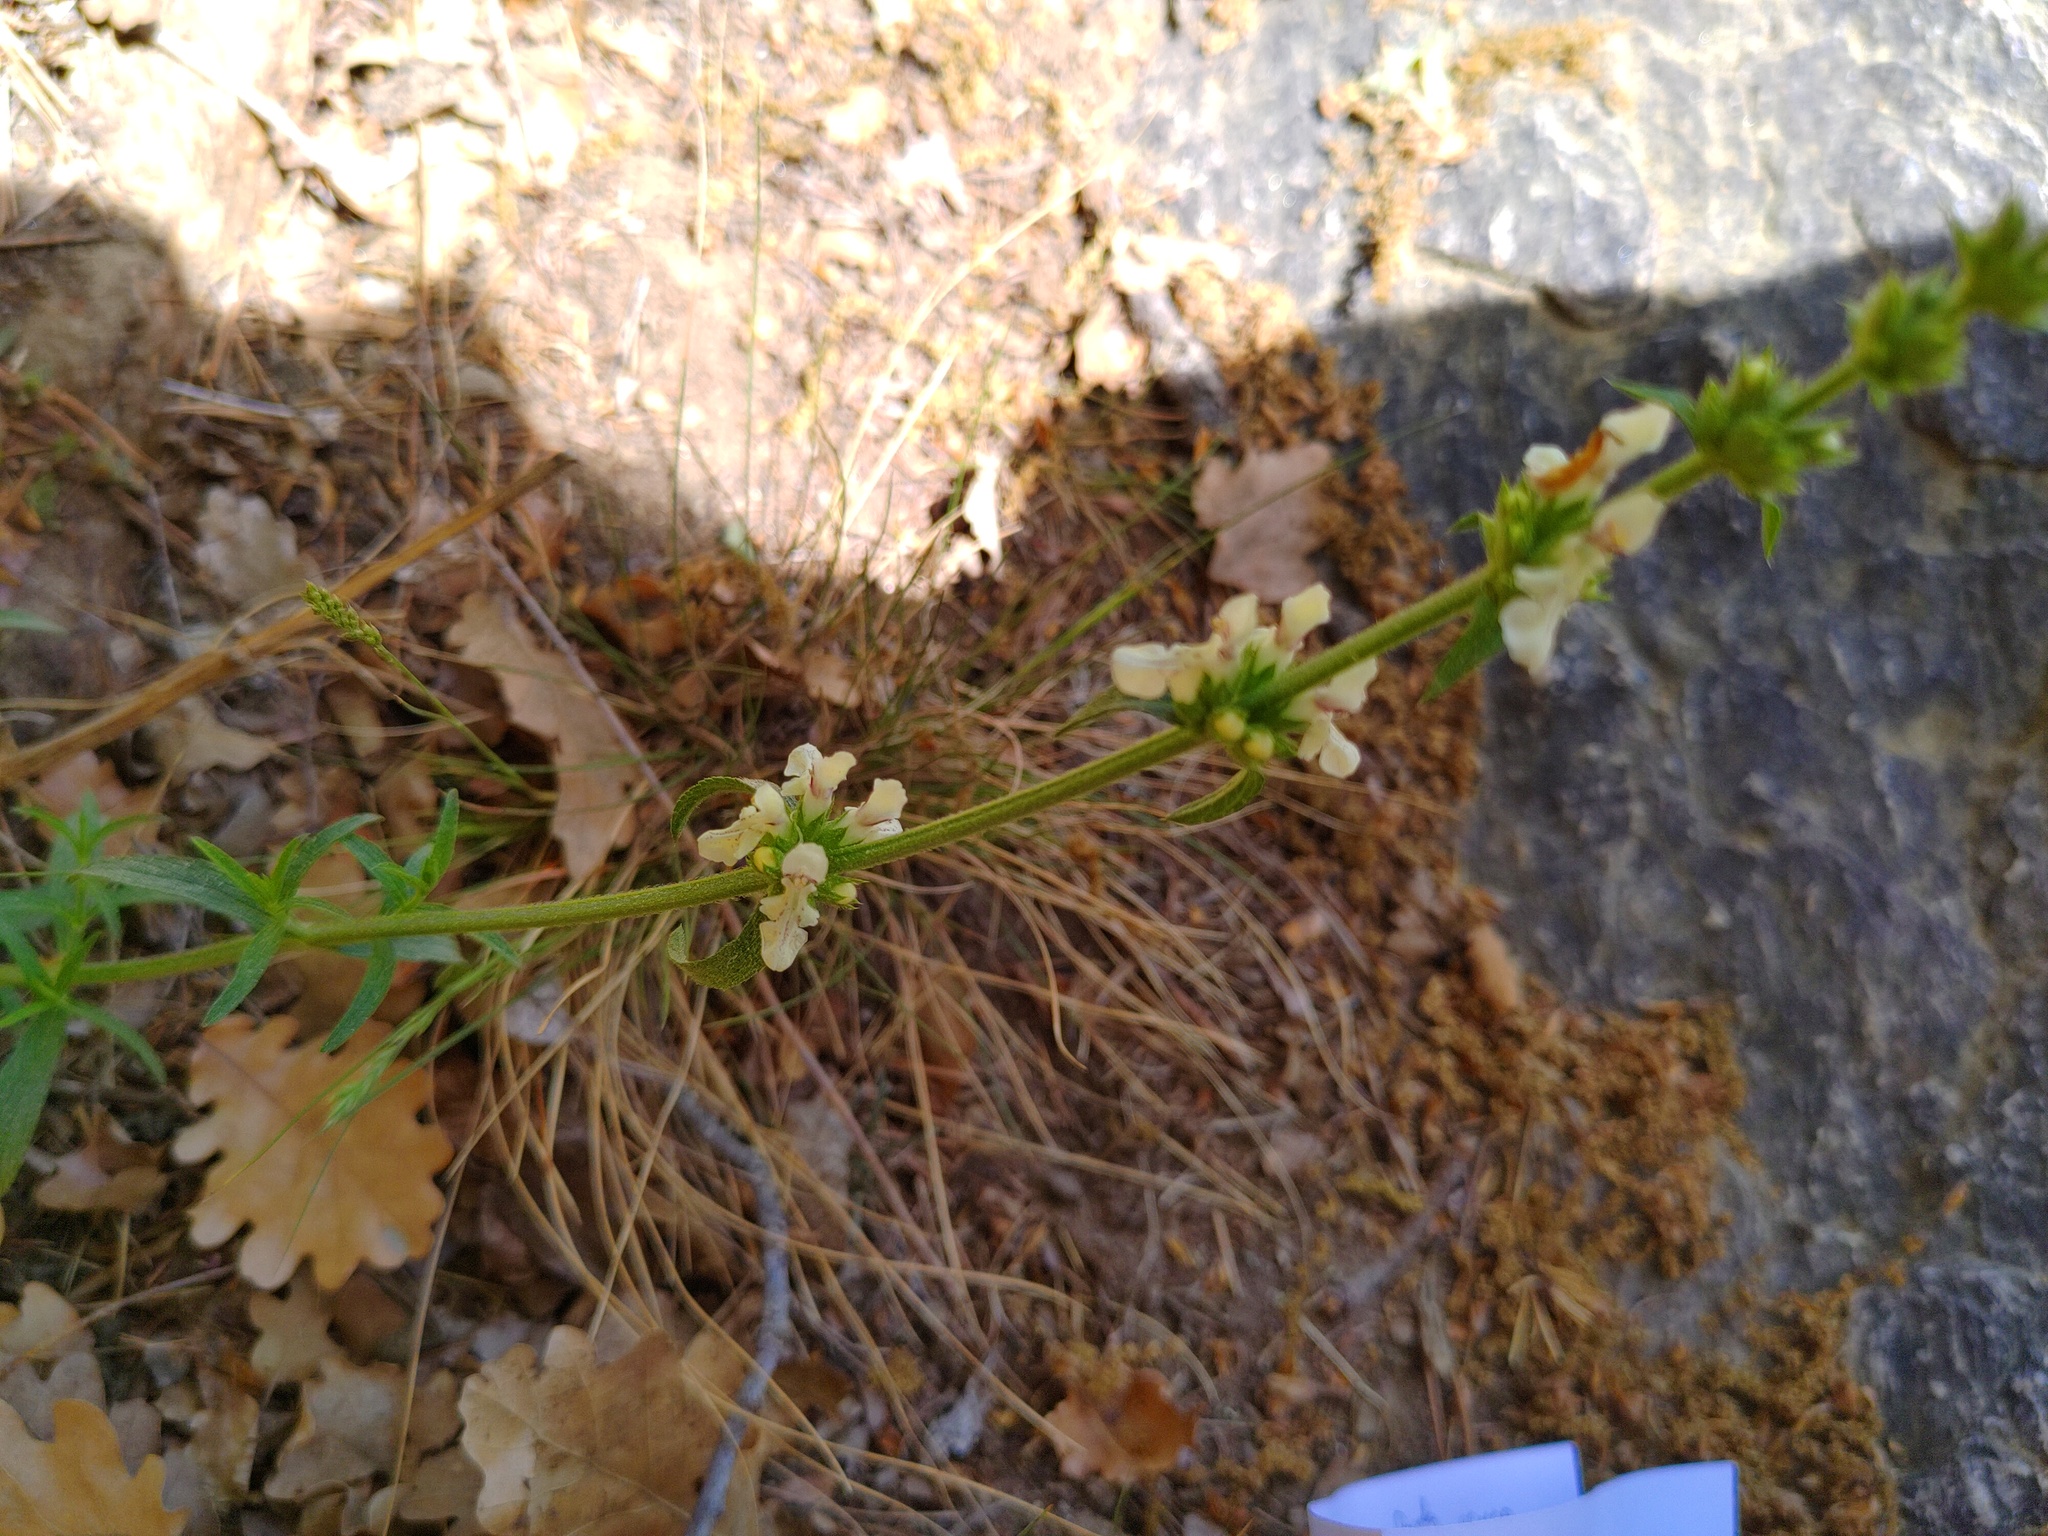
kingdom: Plantae
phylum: Tracheophyta
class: Magnoliopsida
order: Lamiales
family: Lamiaceae
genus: Stachys
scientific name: Stachys recta
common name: Perennial yellow-woundwort
